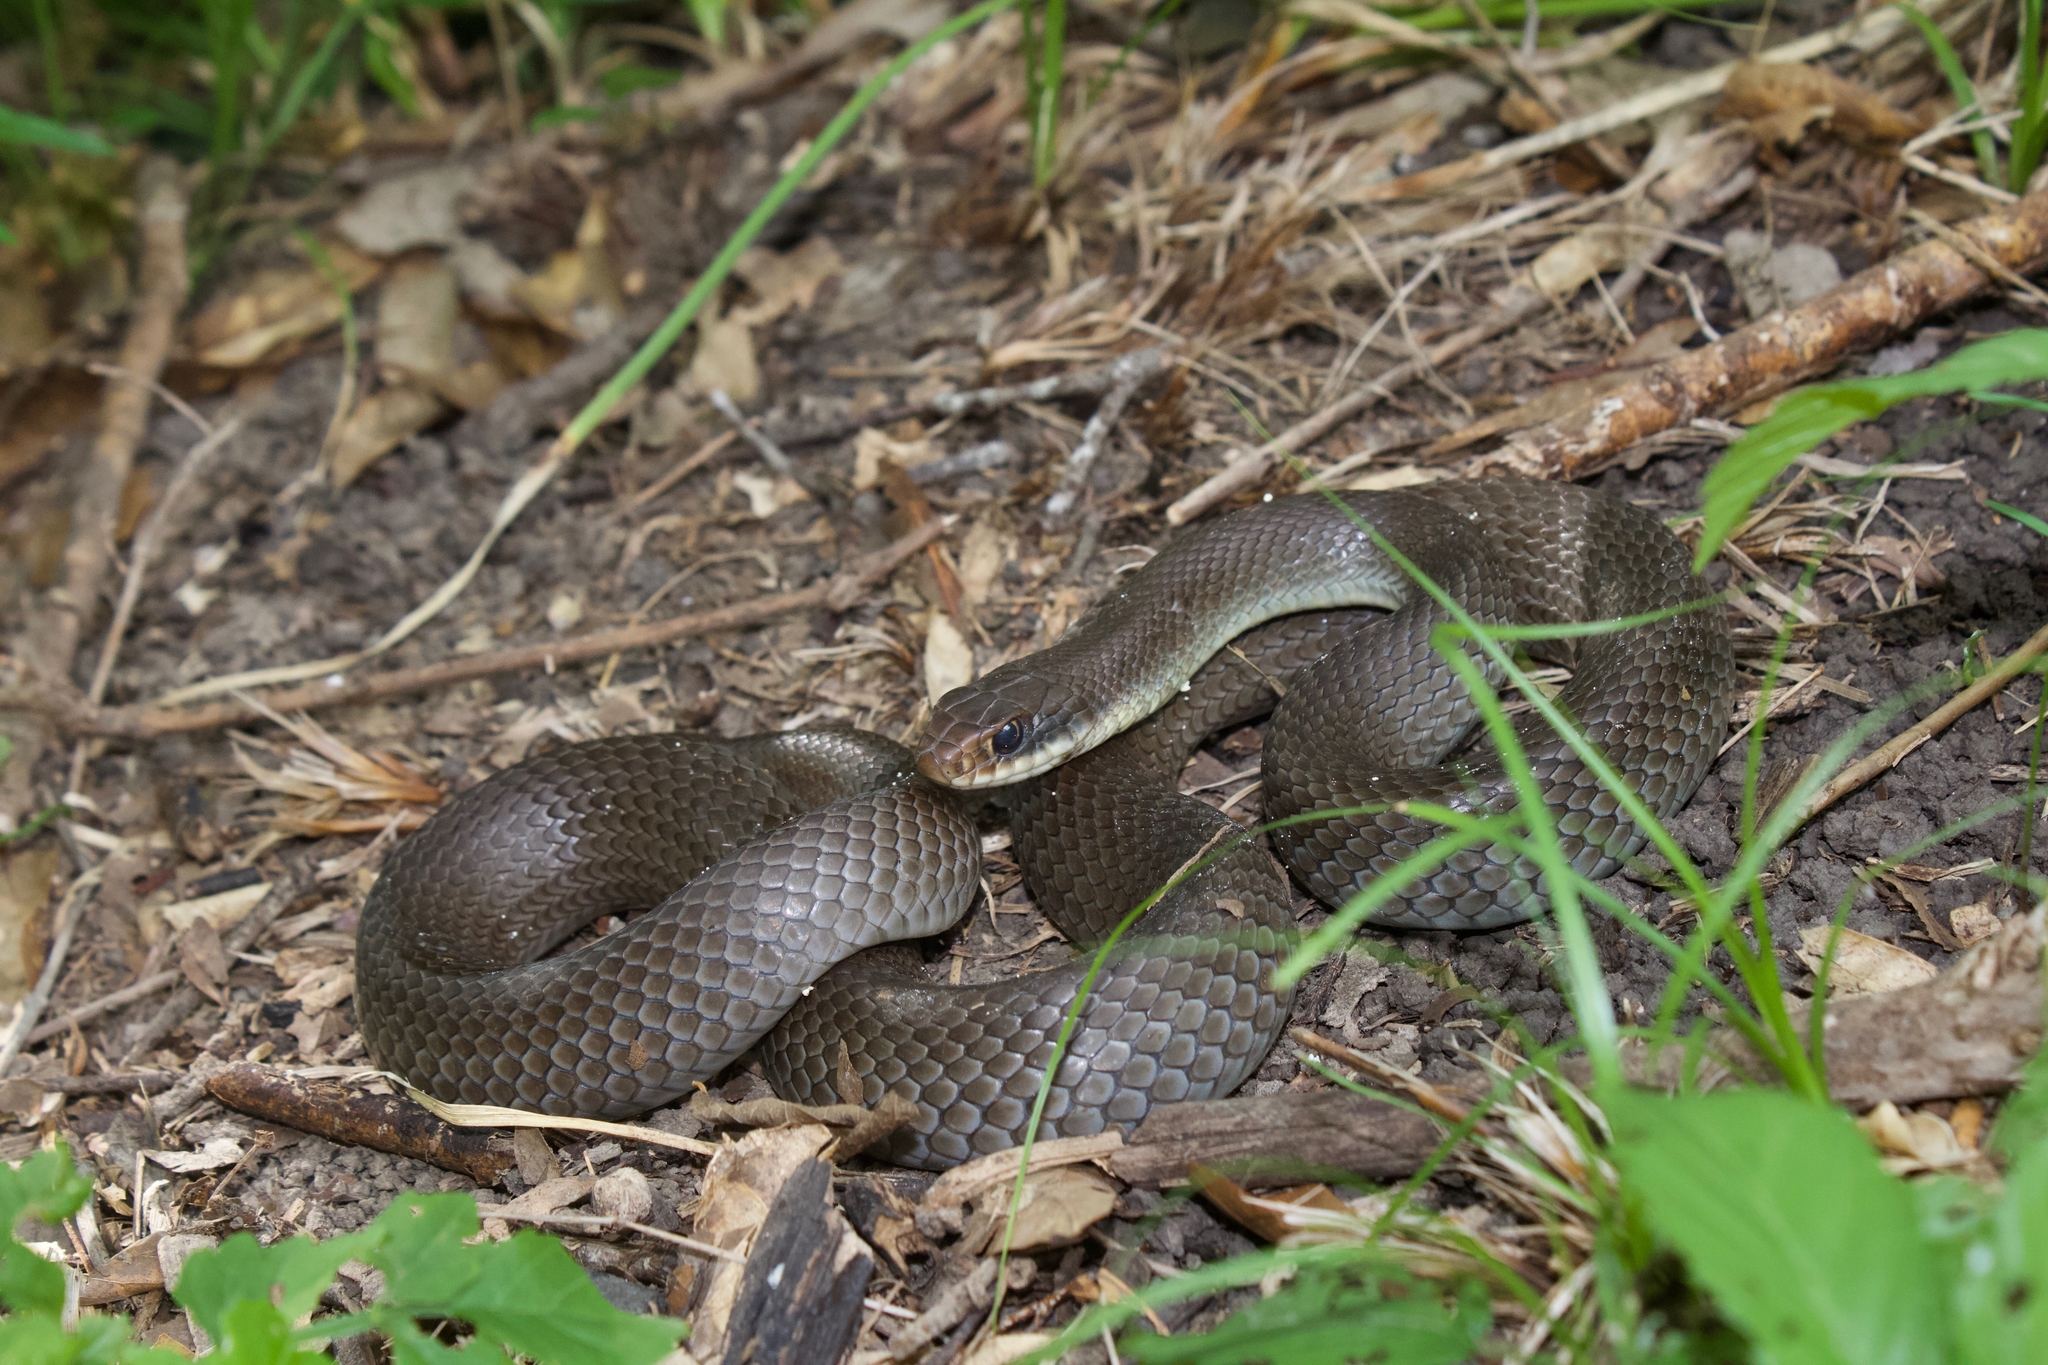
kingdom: Animalia
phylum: Chordata
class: Squamata
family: Colubridae
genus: Coluber
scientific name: Coluber constrictor
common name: Eastern racer
